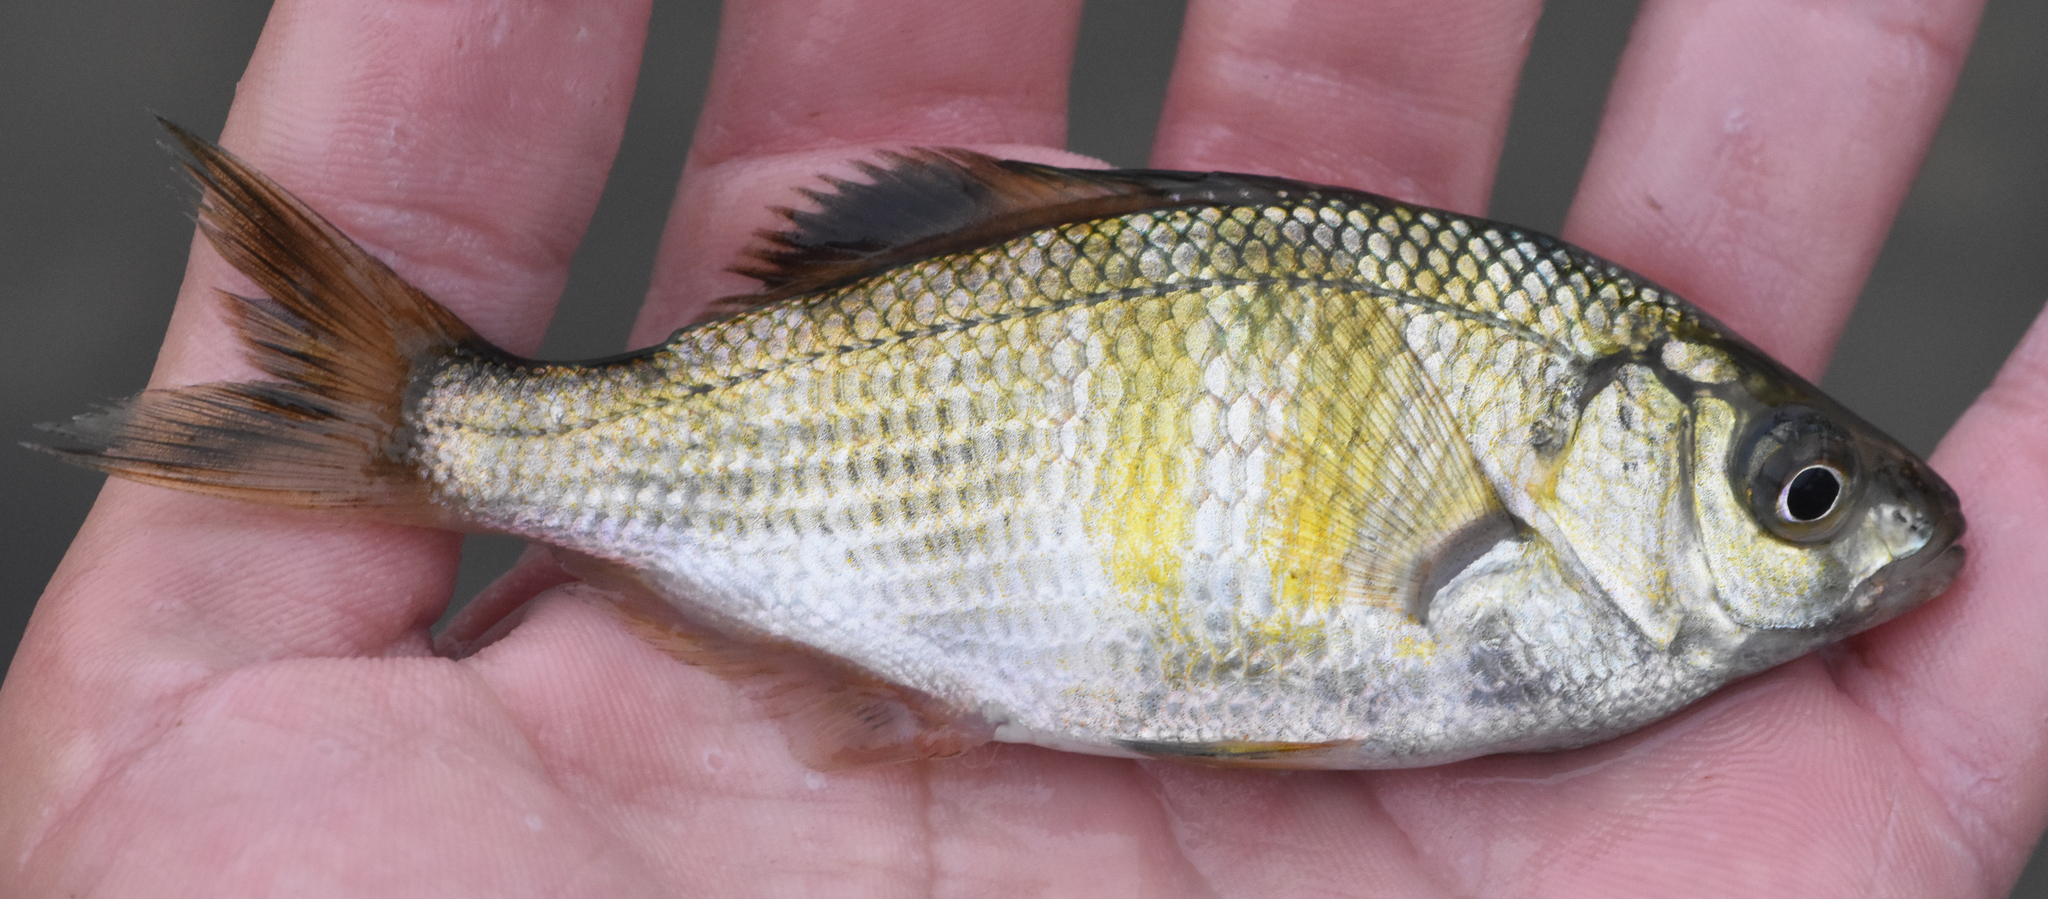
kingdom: Animalia
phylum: Chordata
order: Perciformes
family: Embiotocidae
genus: Cymatogaster
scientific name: Cymatogaster aggregata
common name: Shiner perch
